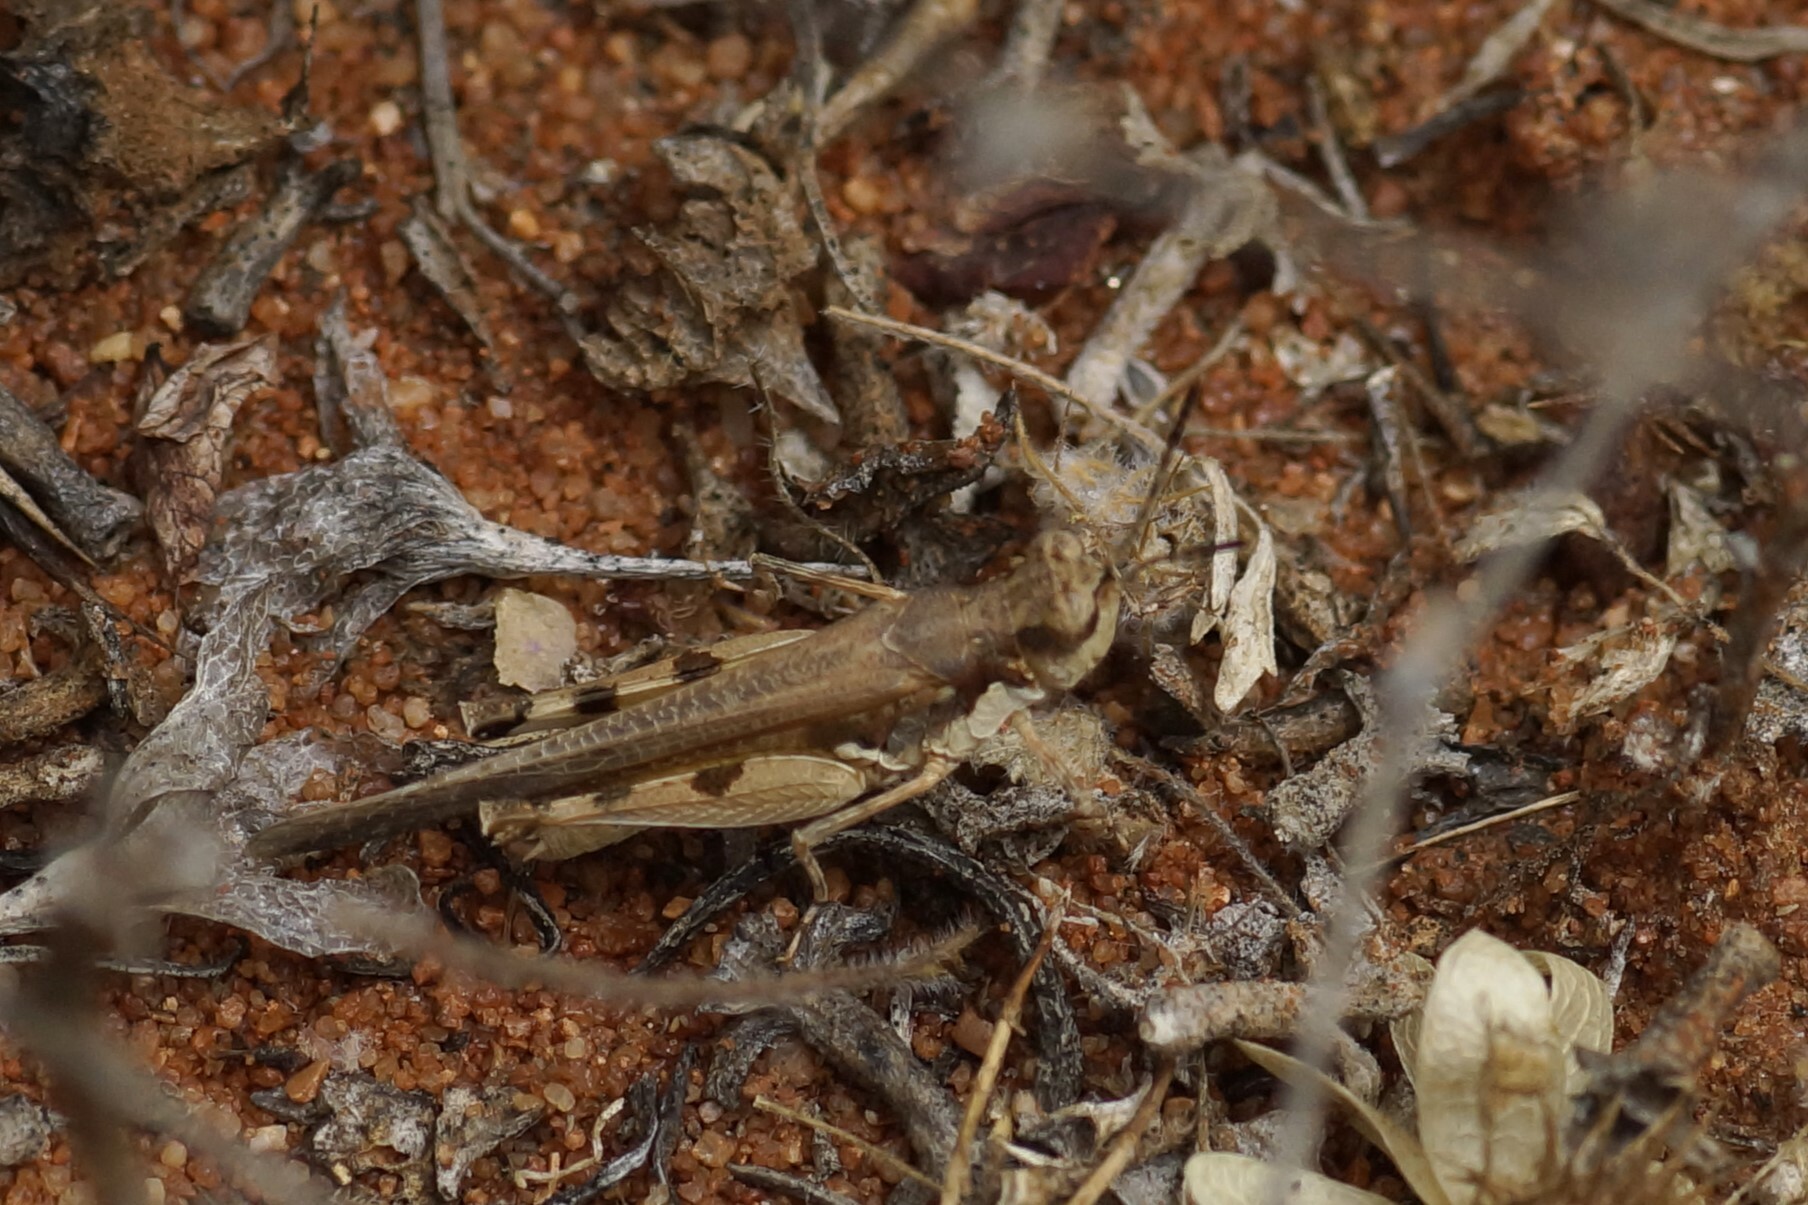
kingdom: Animalia
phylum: Arthropoda
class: Insecta
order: Orthoptera
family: Acrididae
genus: Pycnostictus
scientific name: Pycnostictus seriatus
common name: Common bandwing
